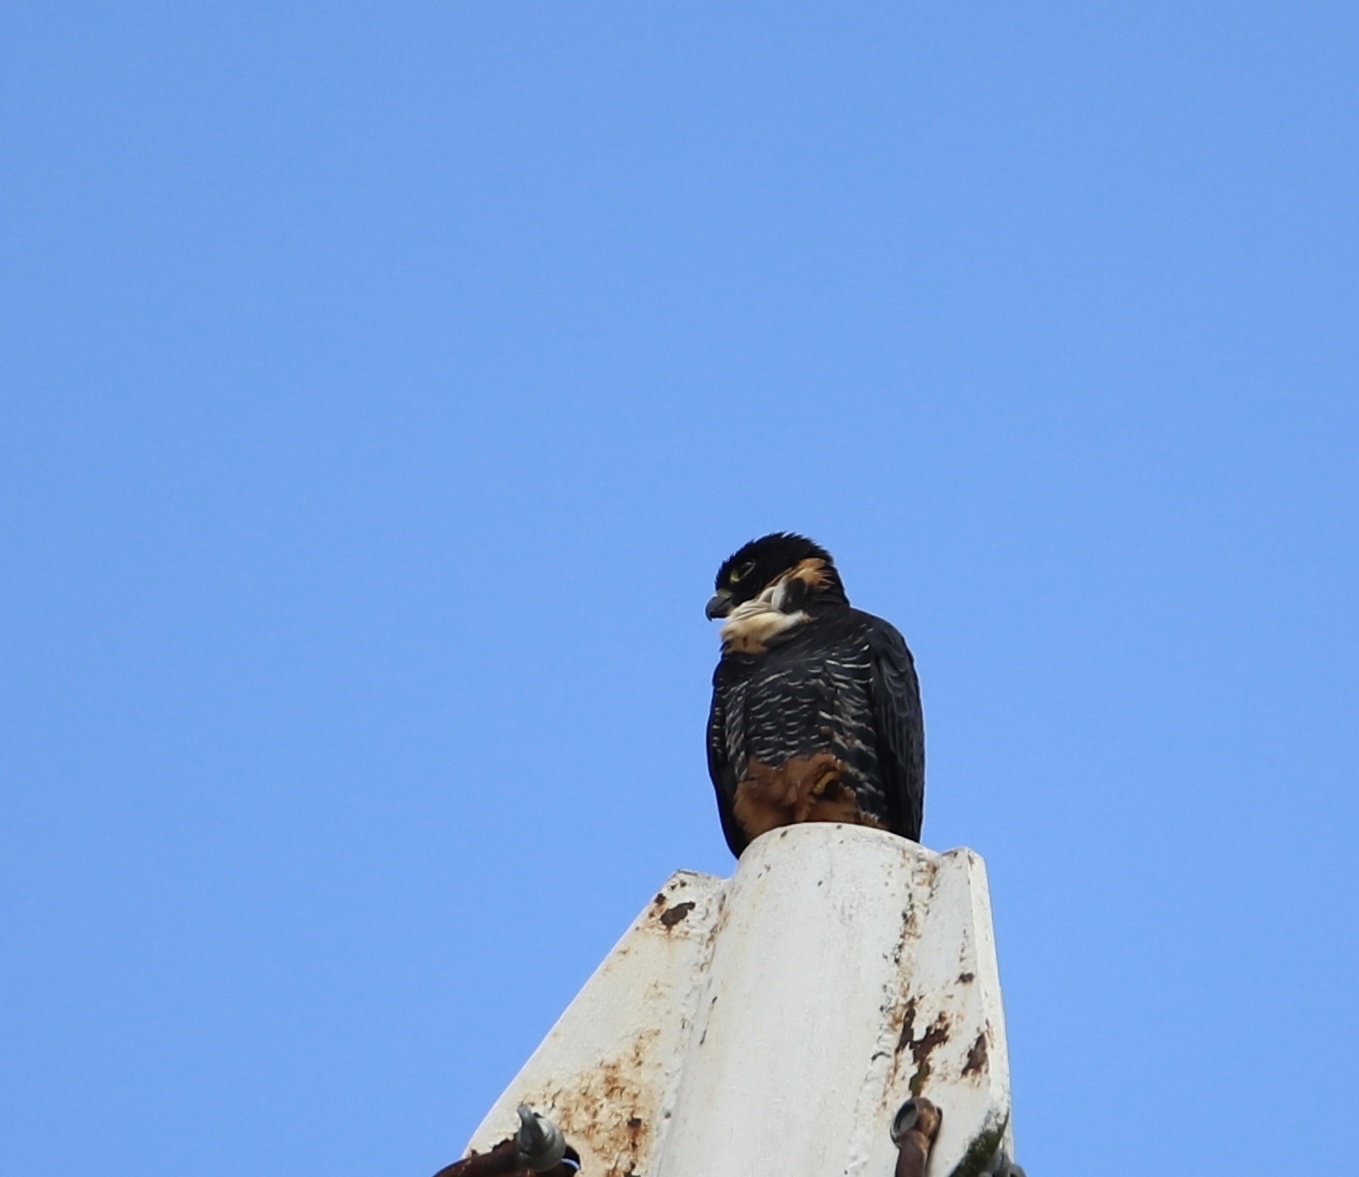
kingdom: Animalia
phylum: Chordata
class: Aves
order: Falconiformes
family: Falconidae
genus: Falco
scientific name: Falco rufigularis
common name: Bat falcon
